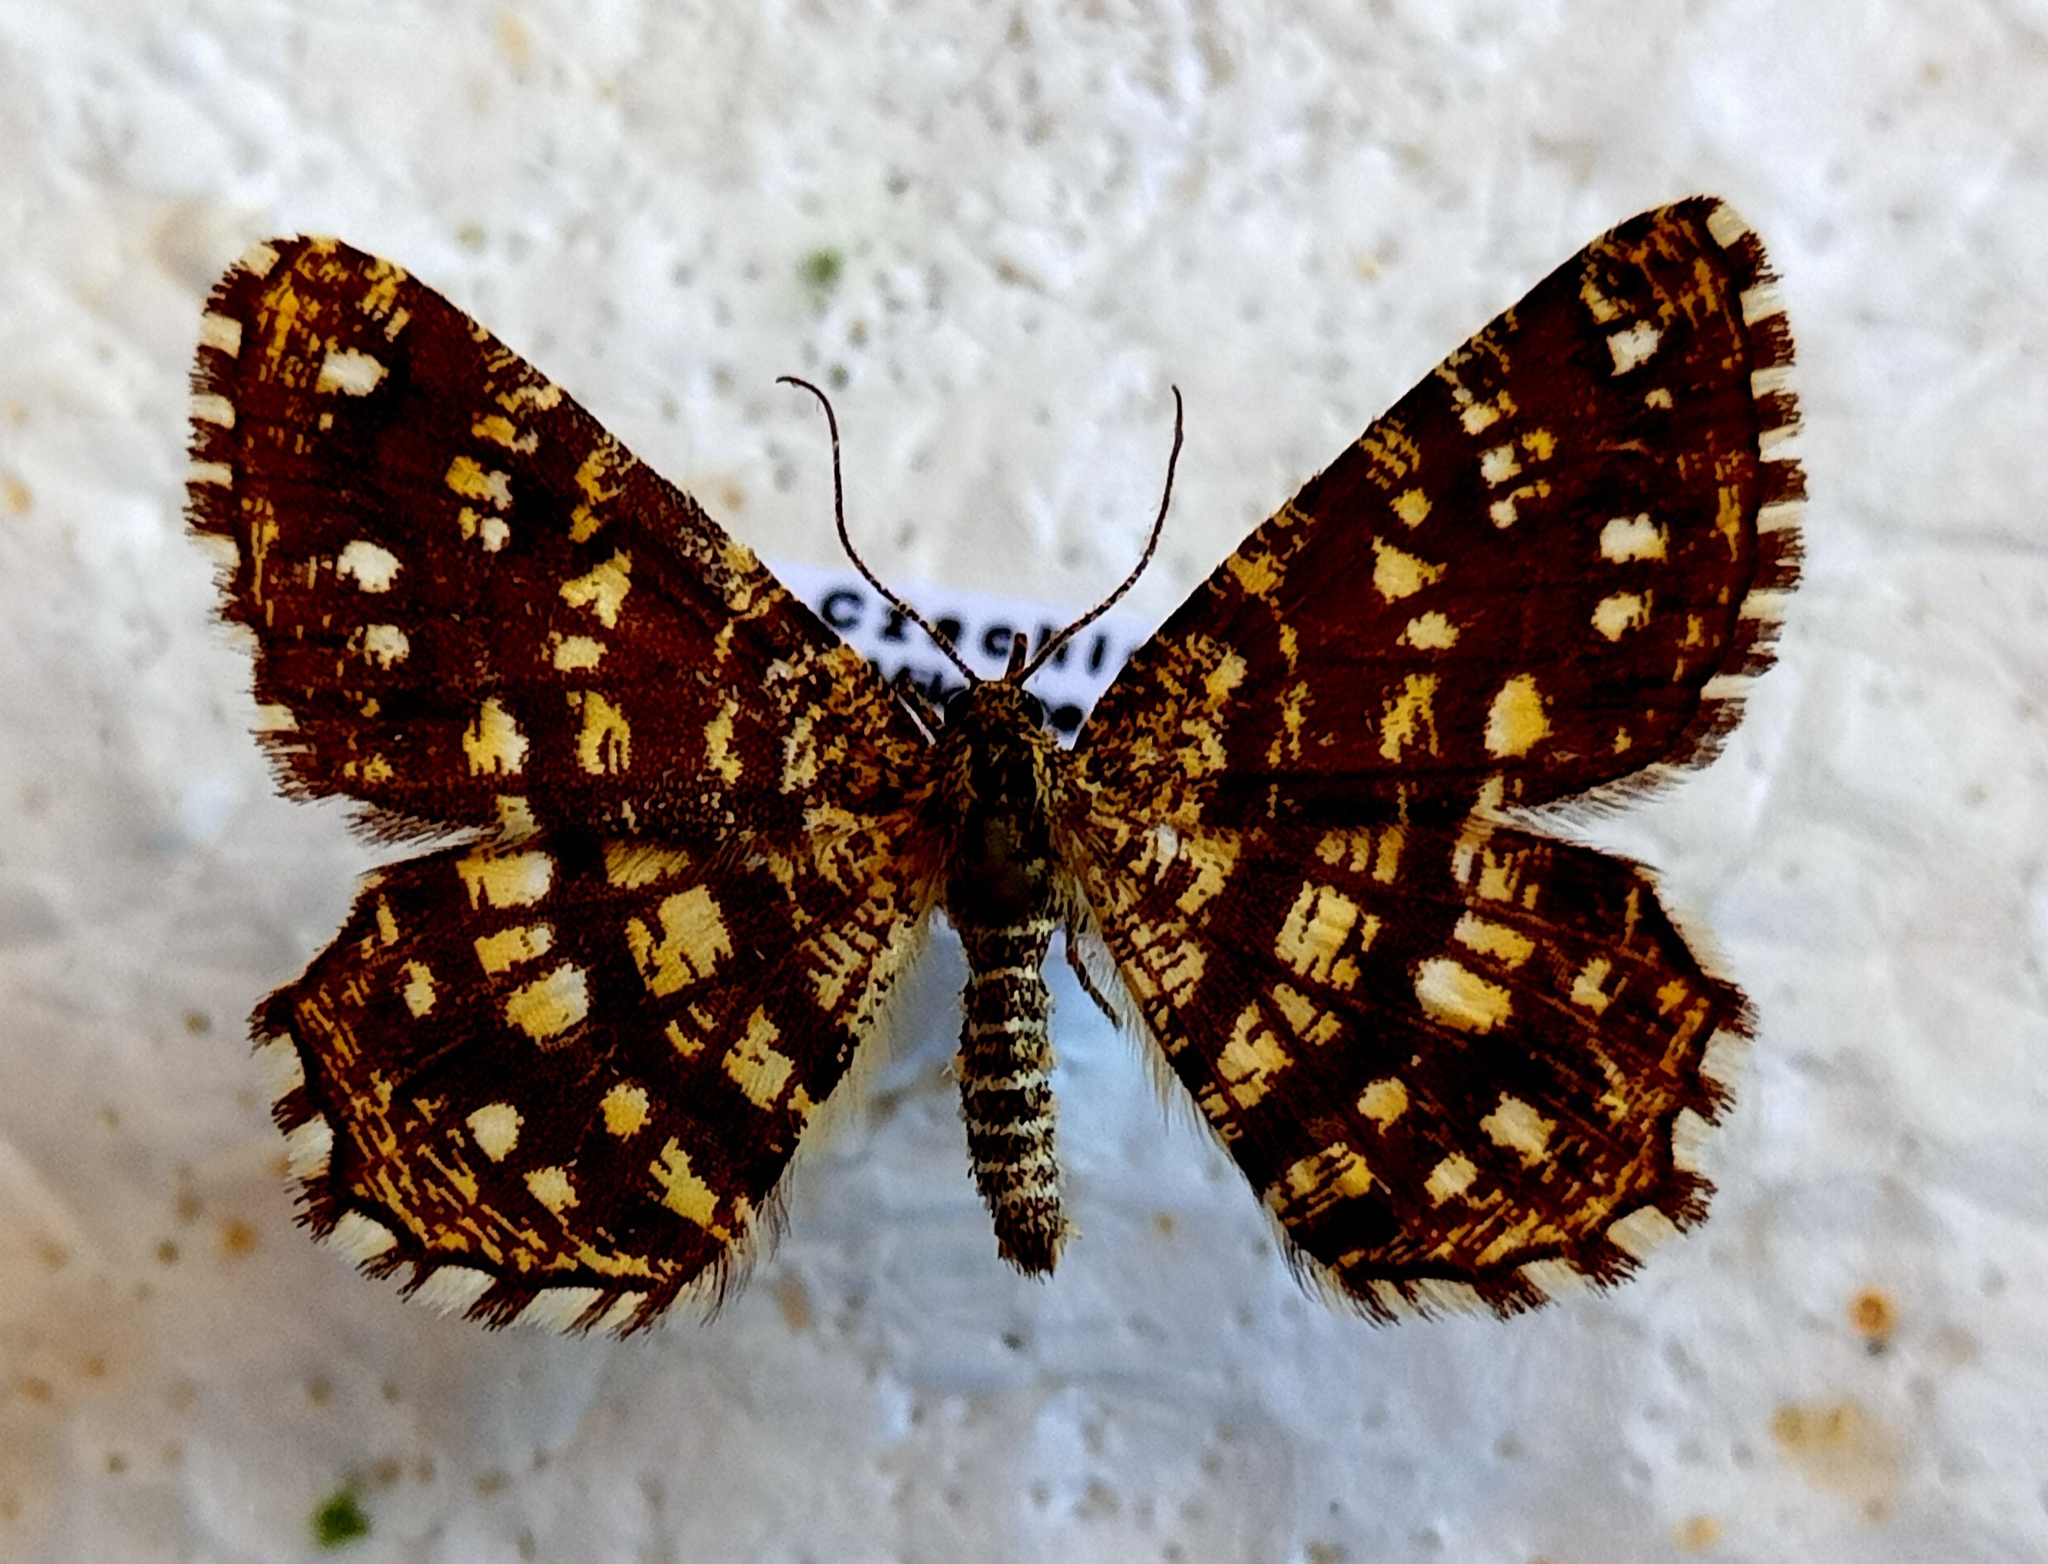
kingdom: Animalia
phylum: Arthropoda
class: Insecta
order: Lepidoptera
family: Geometridae
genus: Chiasmia
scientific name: Chiasmia clathrata
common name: Latticed heath
